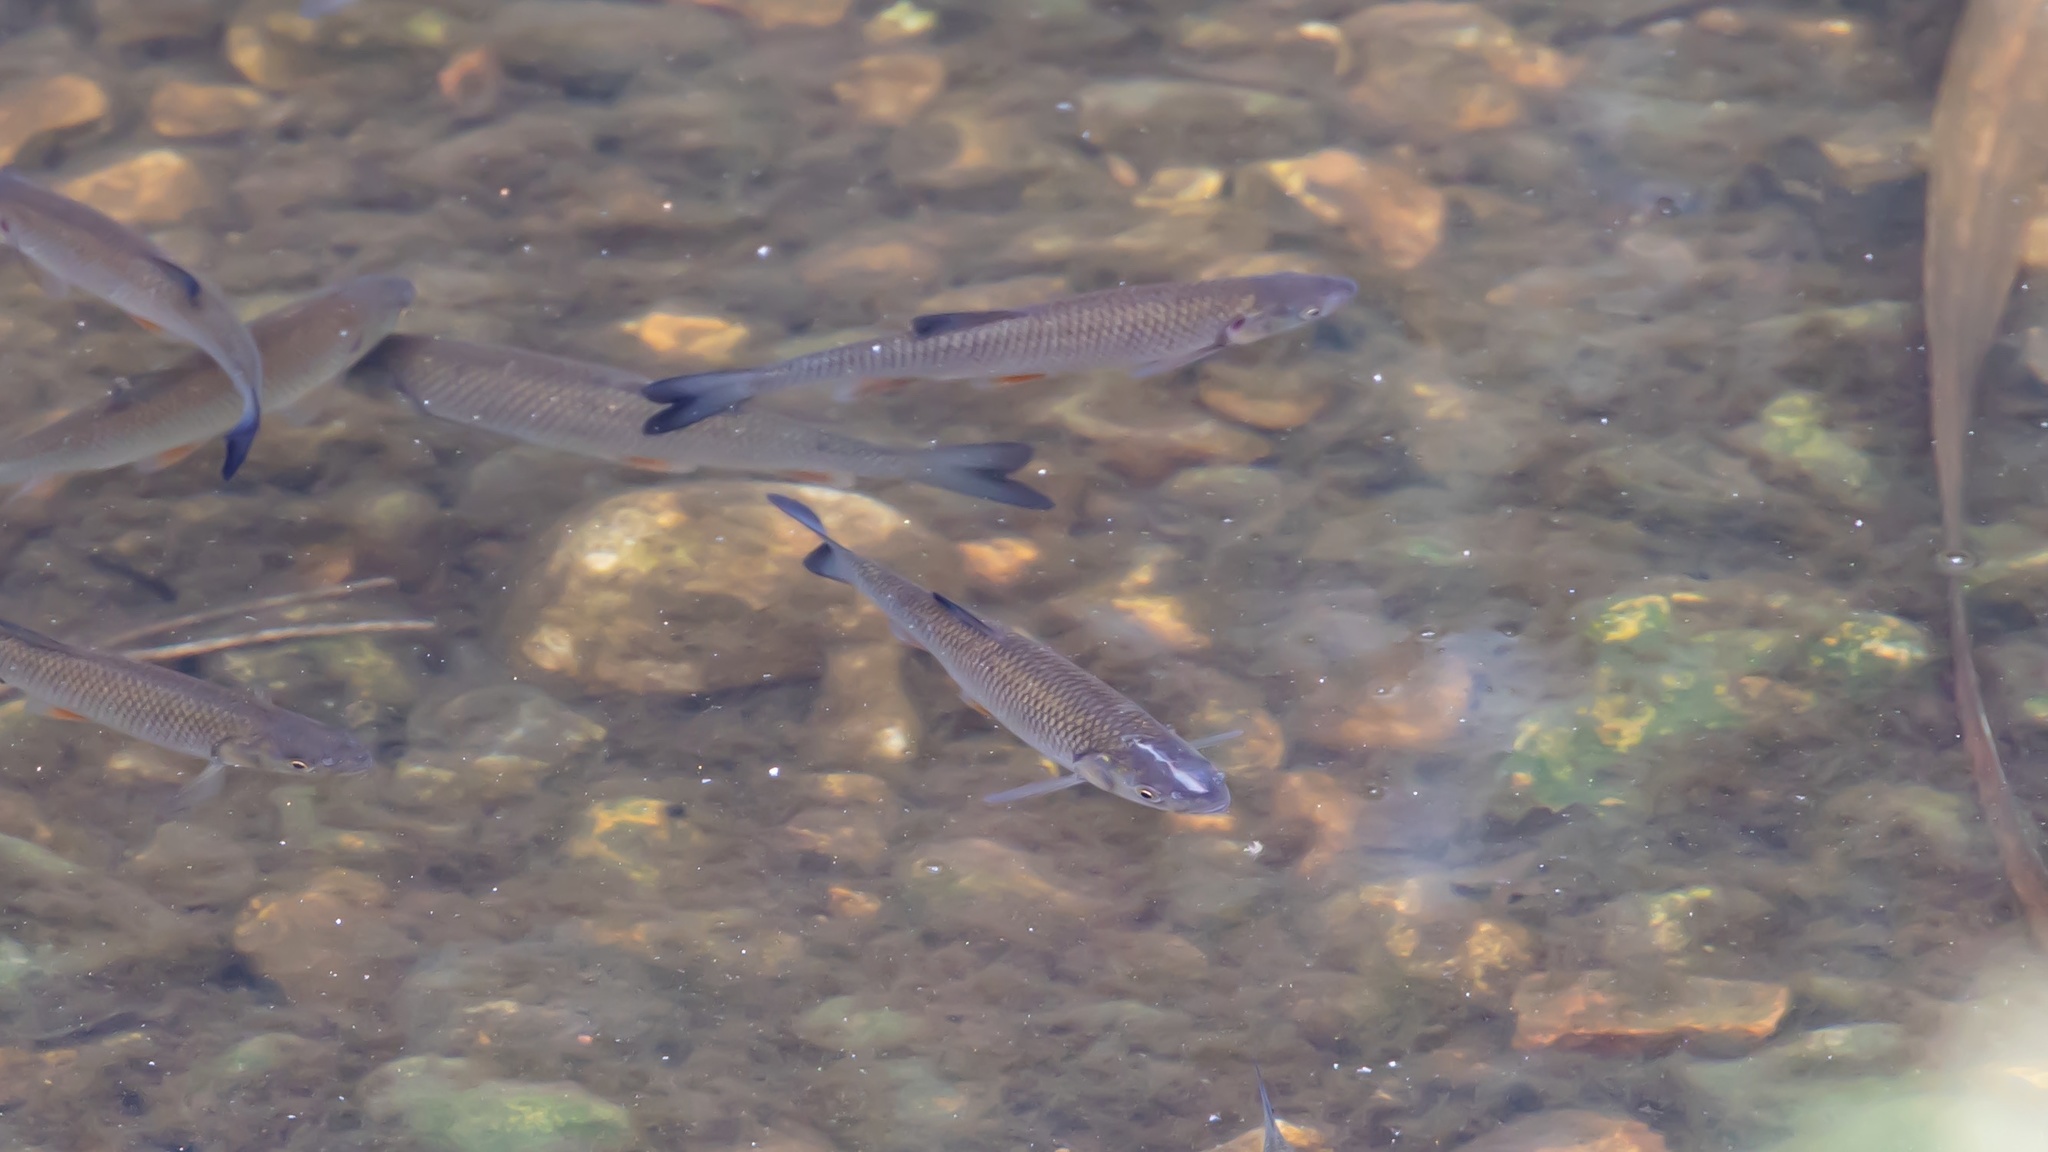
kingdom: Animalia
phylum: Chordata
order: Cypriniformes
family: Cyprinidae
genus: Squalius
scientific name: Squalius cephalus
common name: Chub
